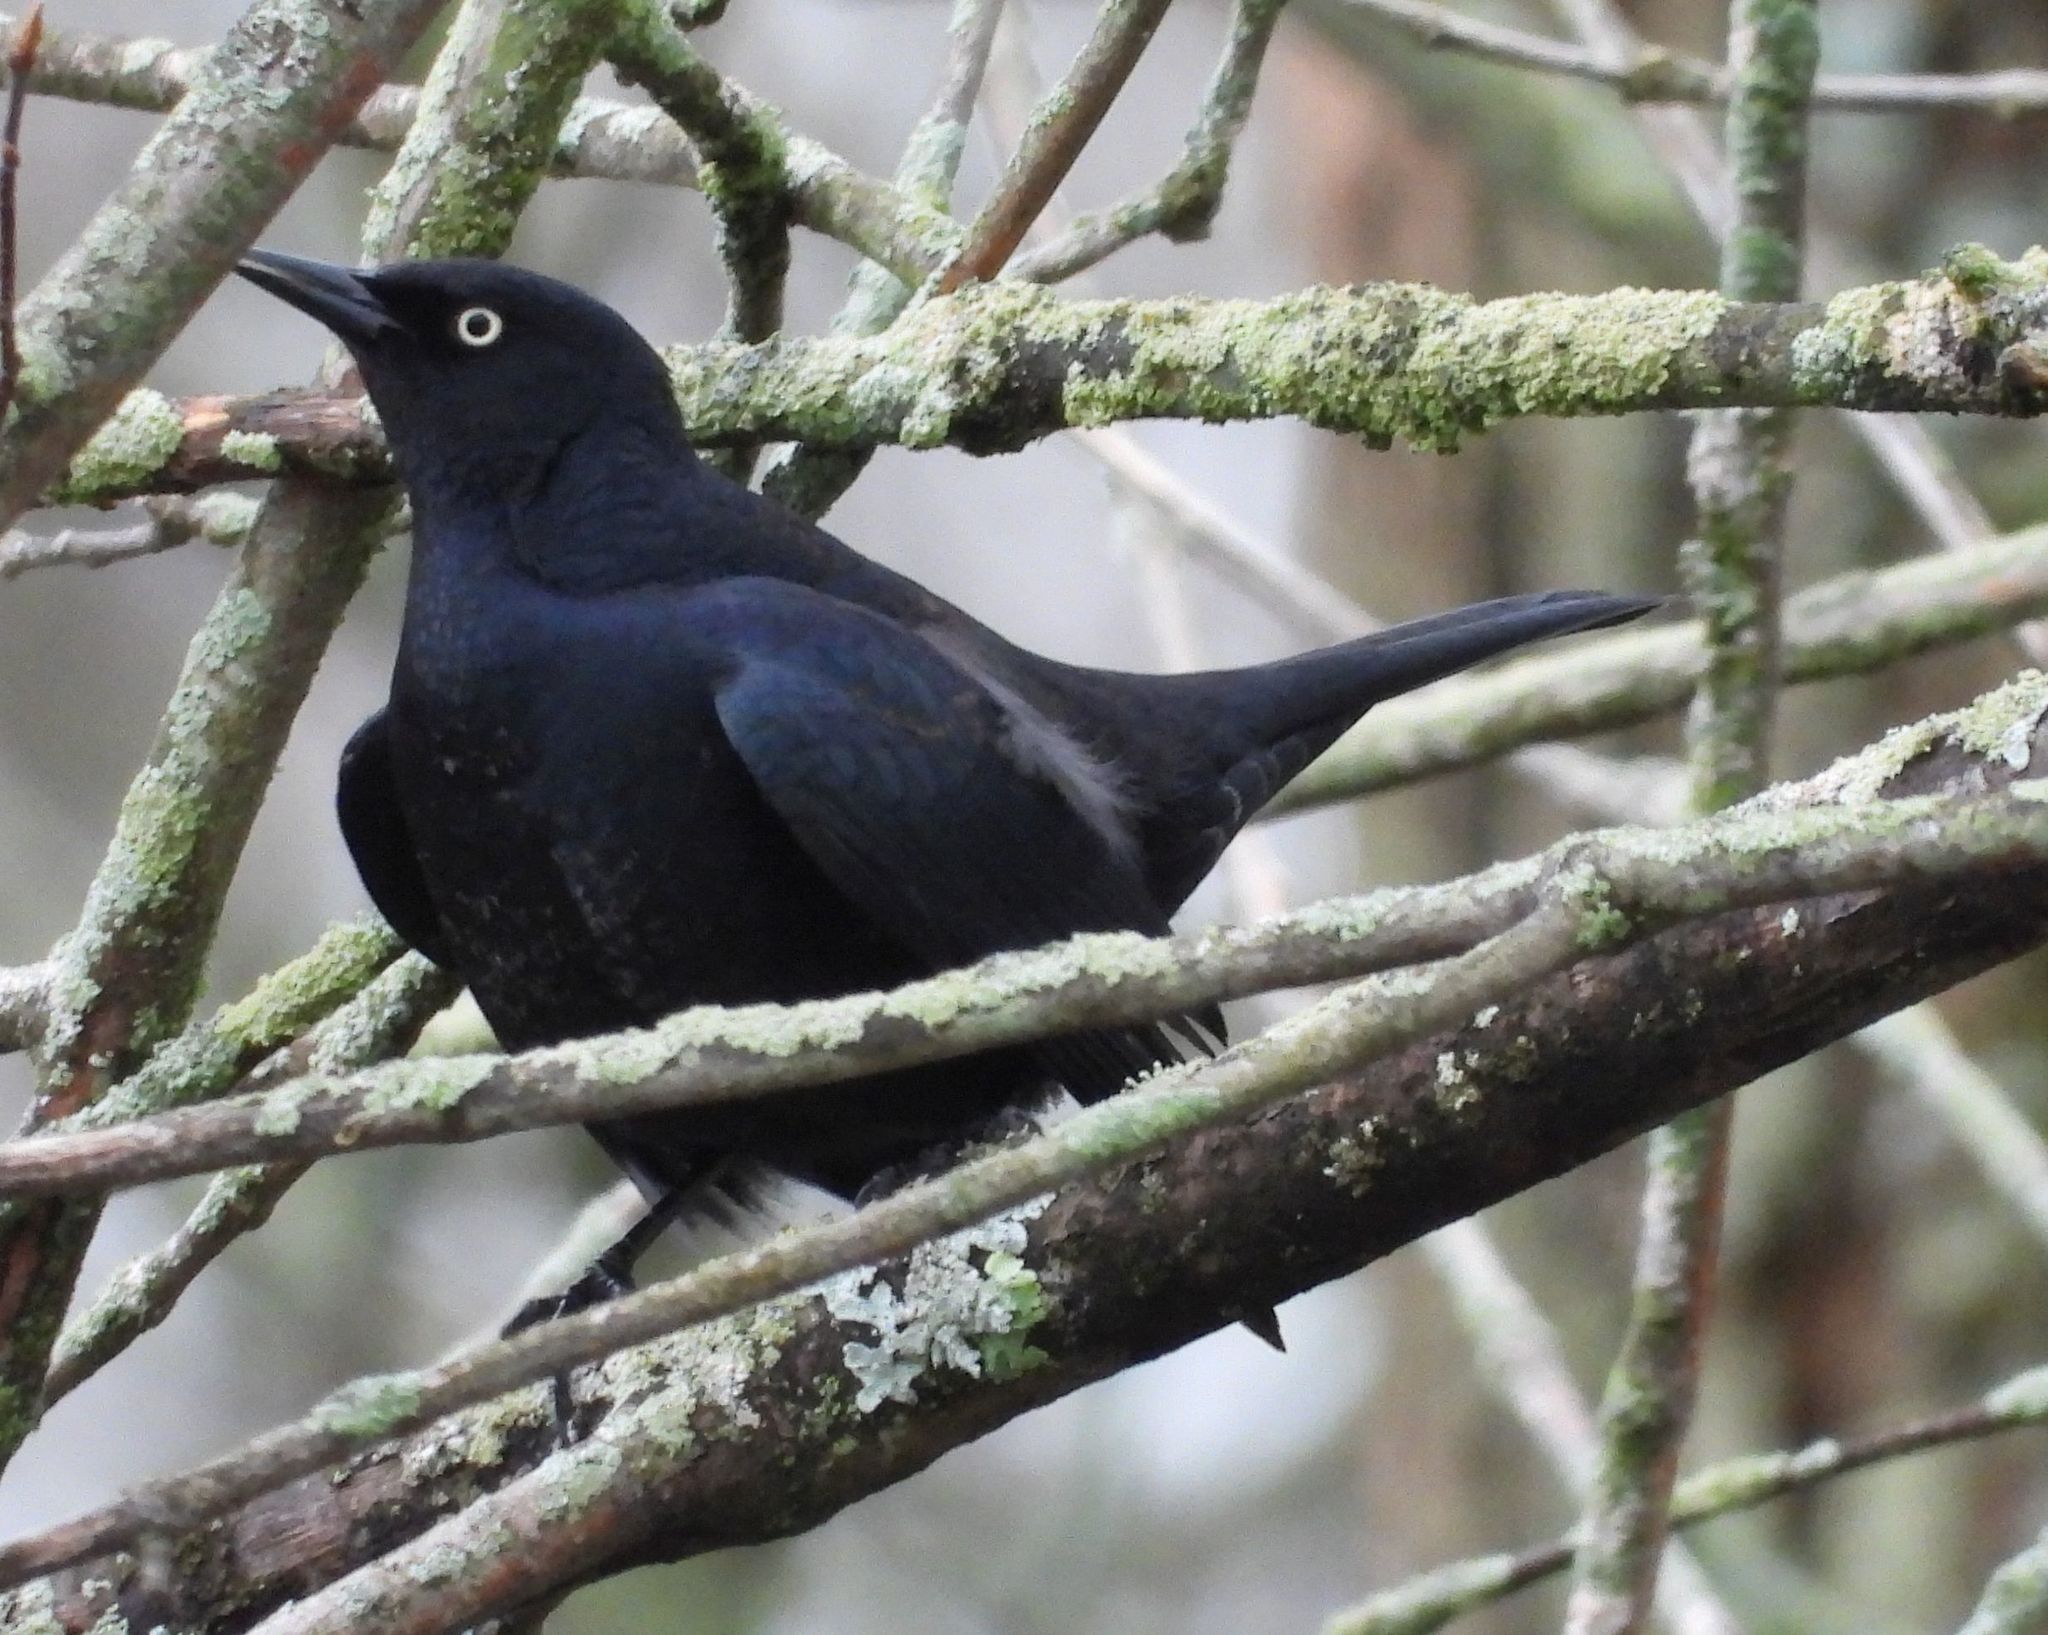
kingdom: Animalia
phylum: Chordata
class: Aves
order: Passeriformes
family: Icteridae
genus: Euphagus
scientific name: Euphagus carolinus
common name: Rusty blackbird
